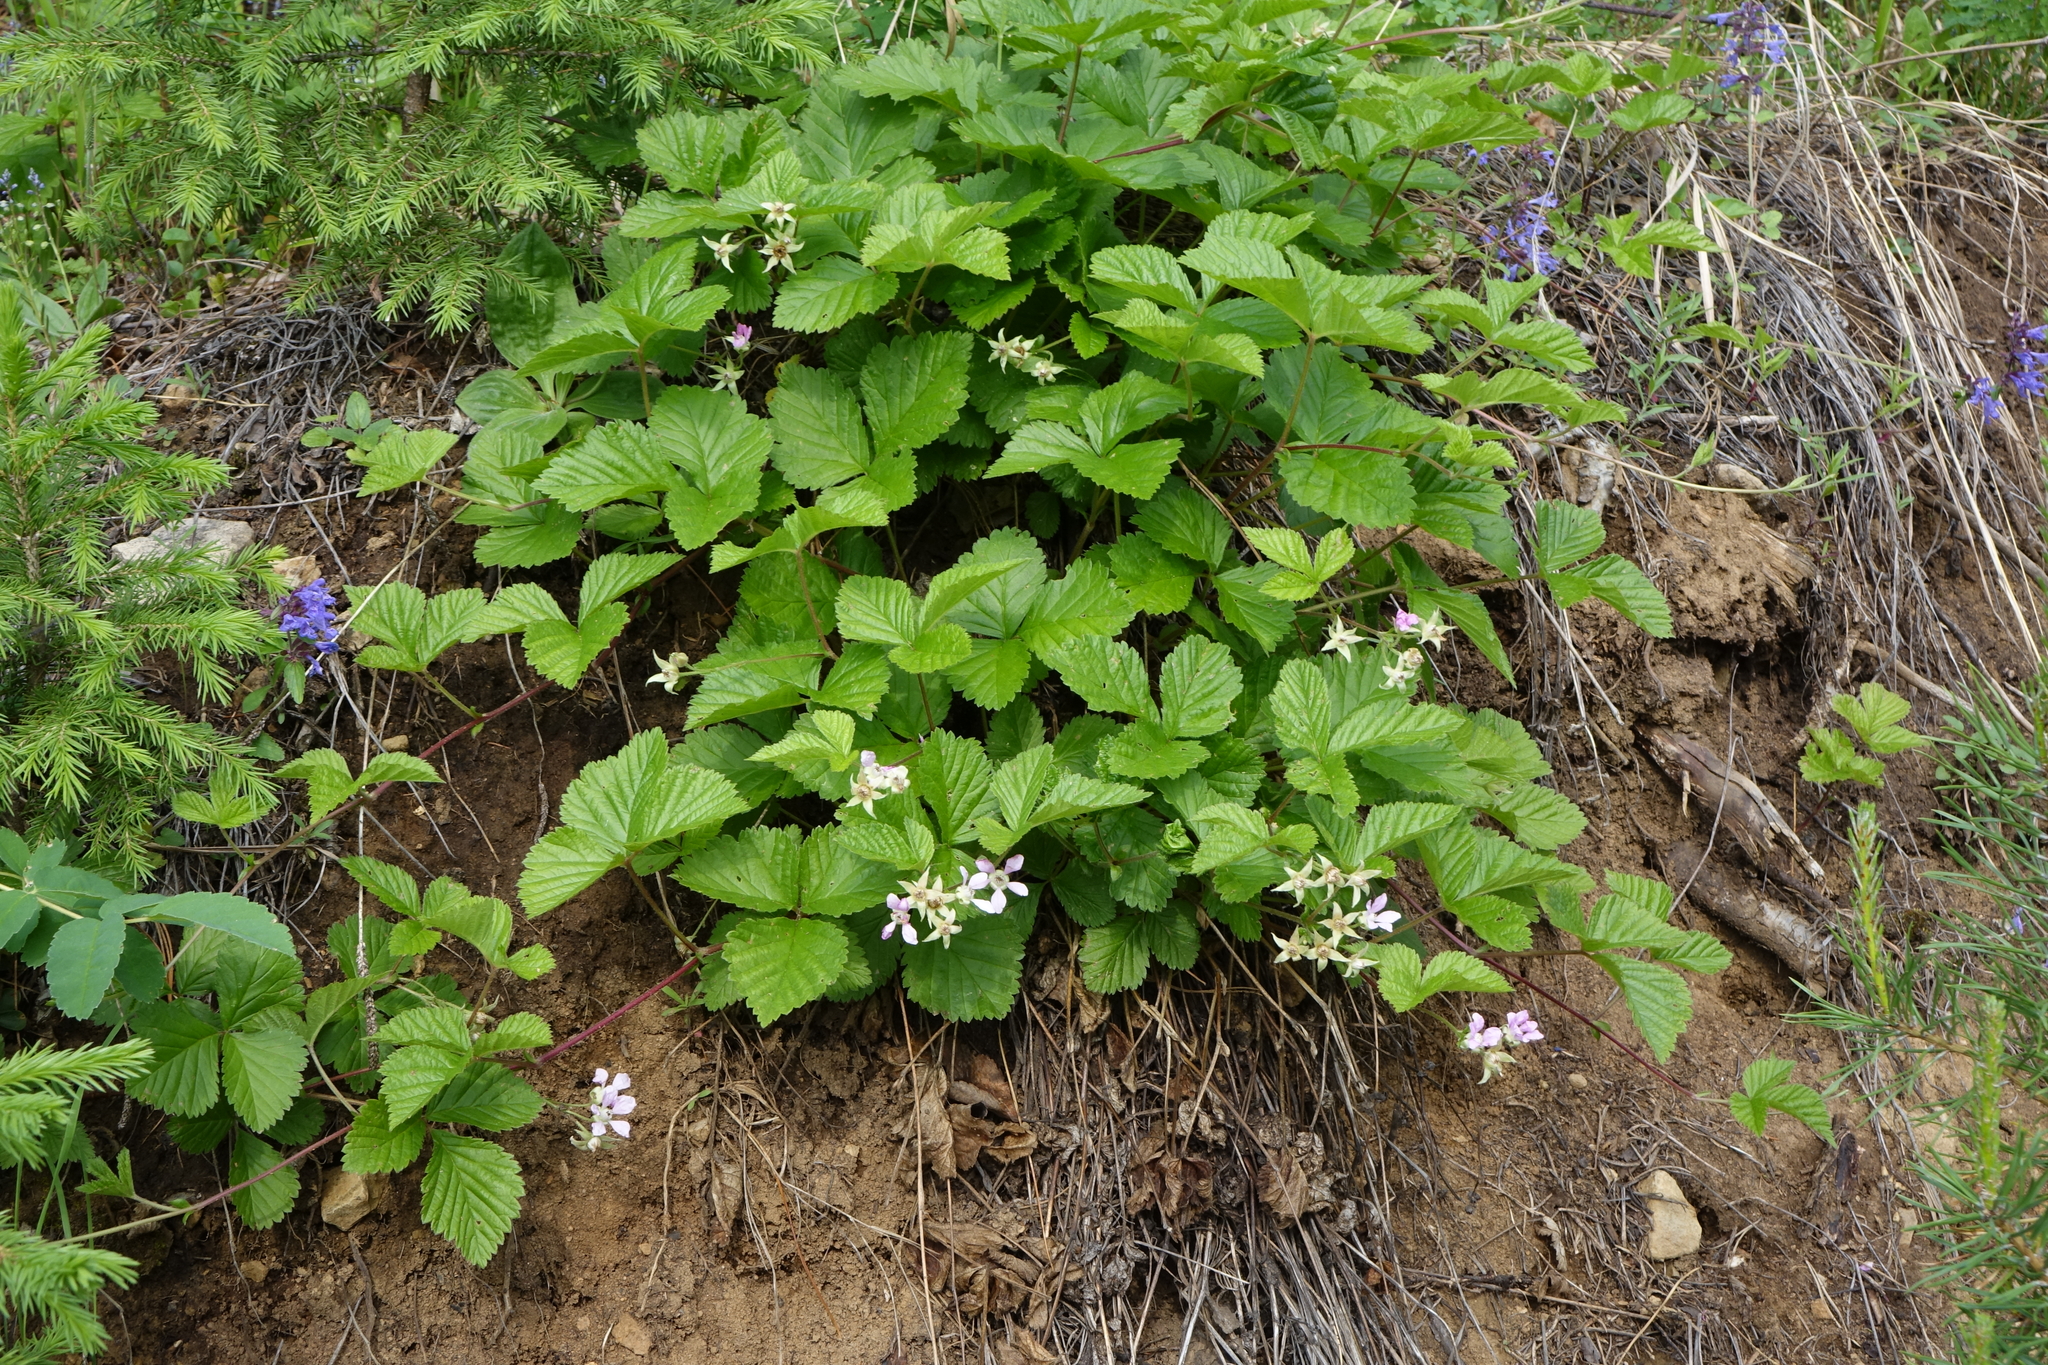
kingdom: Plantae
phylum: Tracheophyta
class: Magnoliopsida
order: Rosales
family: Rosaceae
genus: Rubus
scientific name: Rubus castoreus
